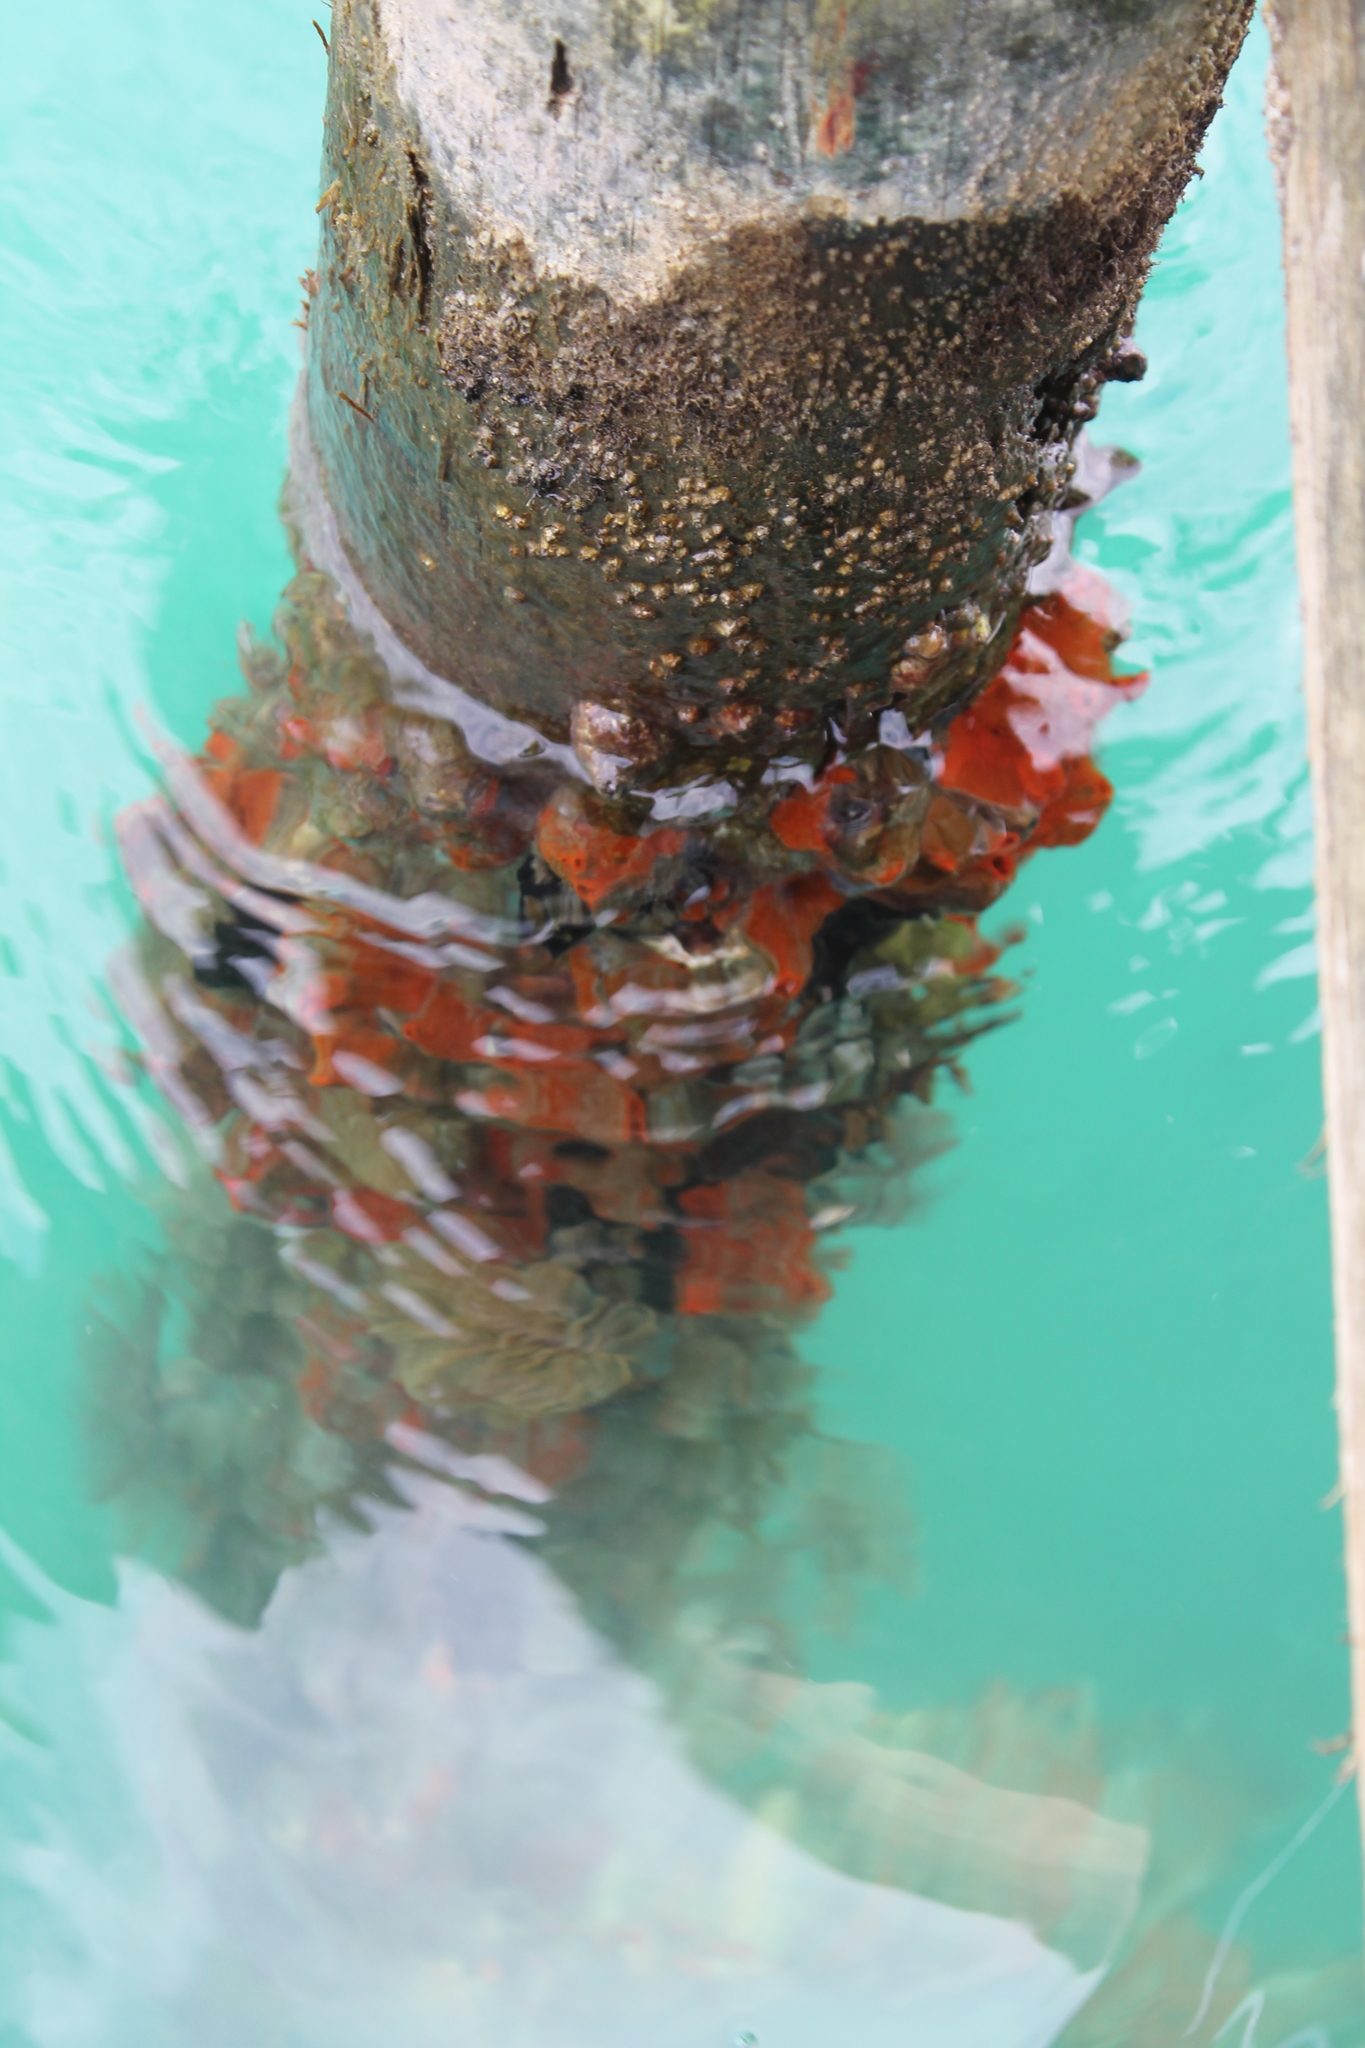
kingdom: Animalia
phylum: Porifera
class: Demospongiae
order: Poecilosclerida
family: Tedaniidae
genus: Tedania
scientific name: Tedania ignis
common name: Sponge
